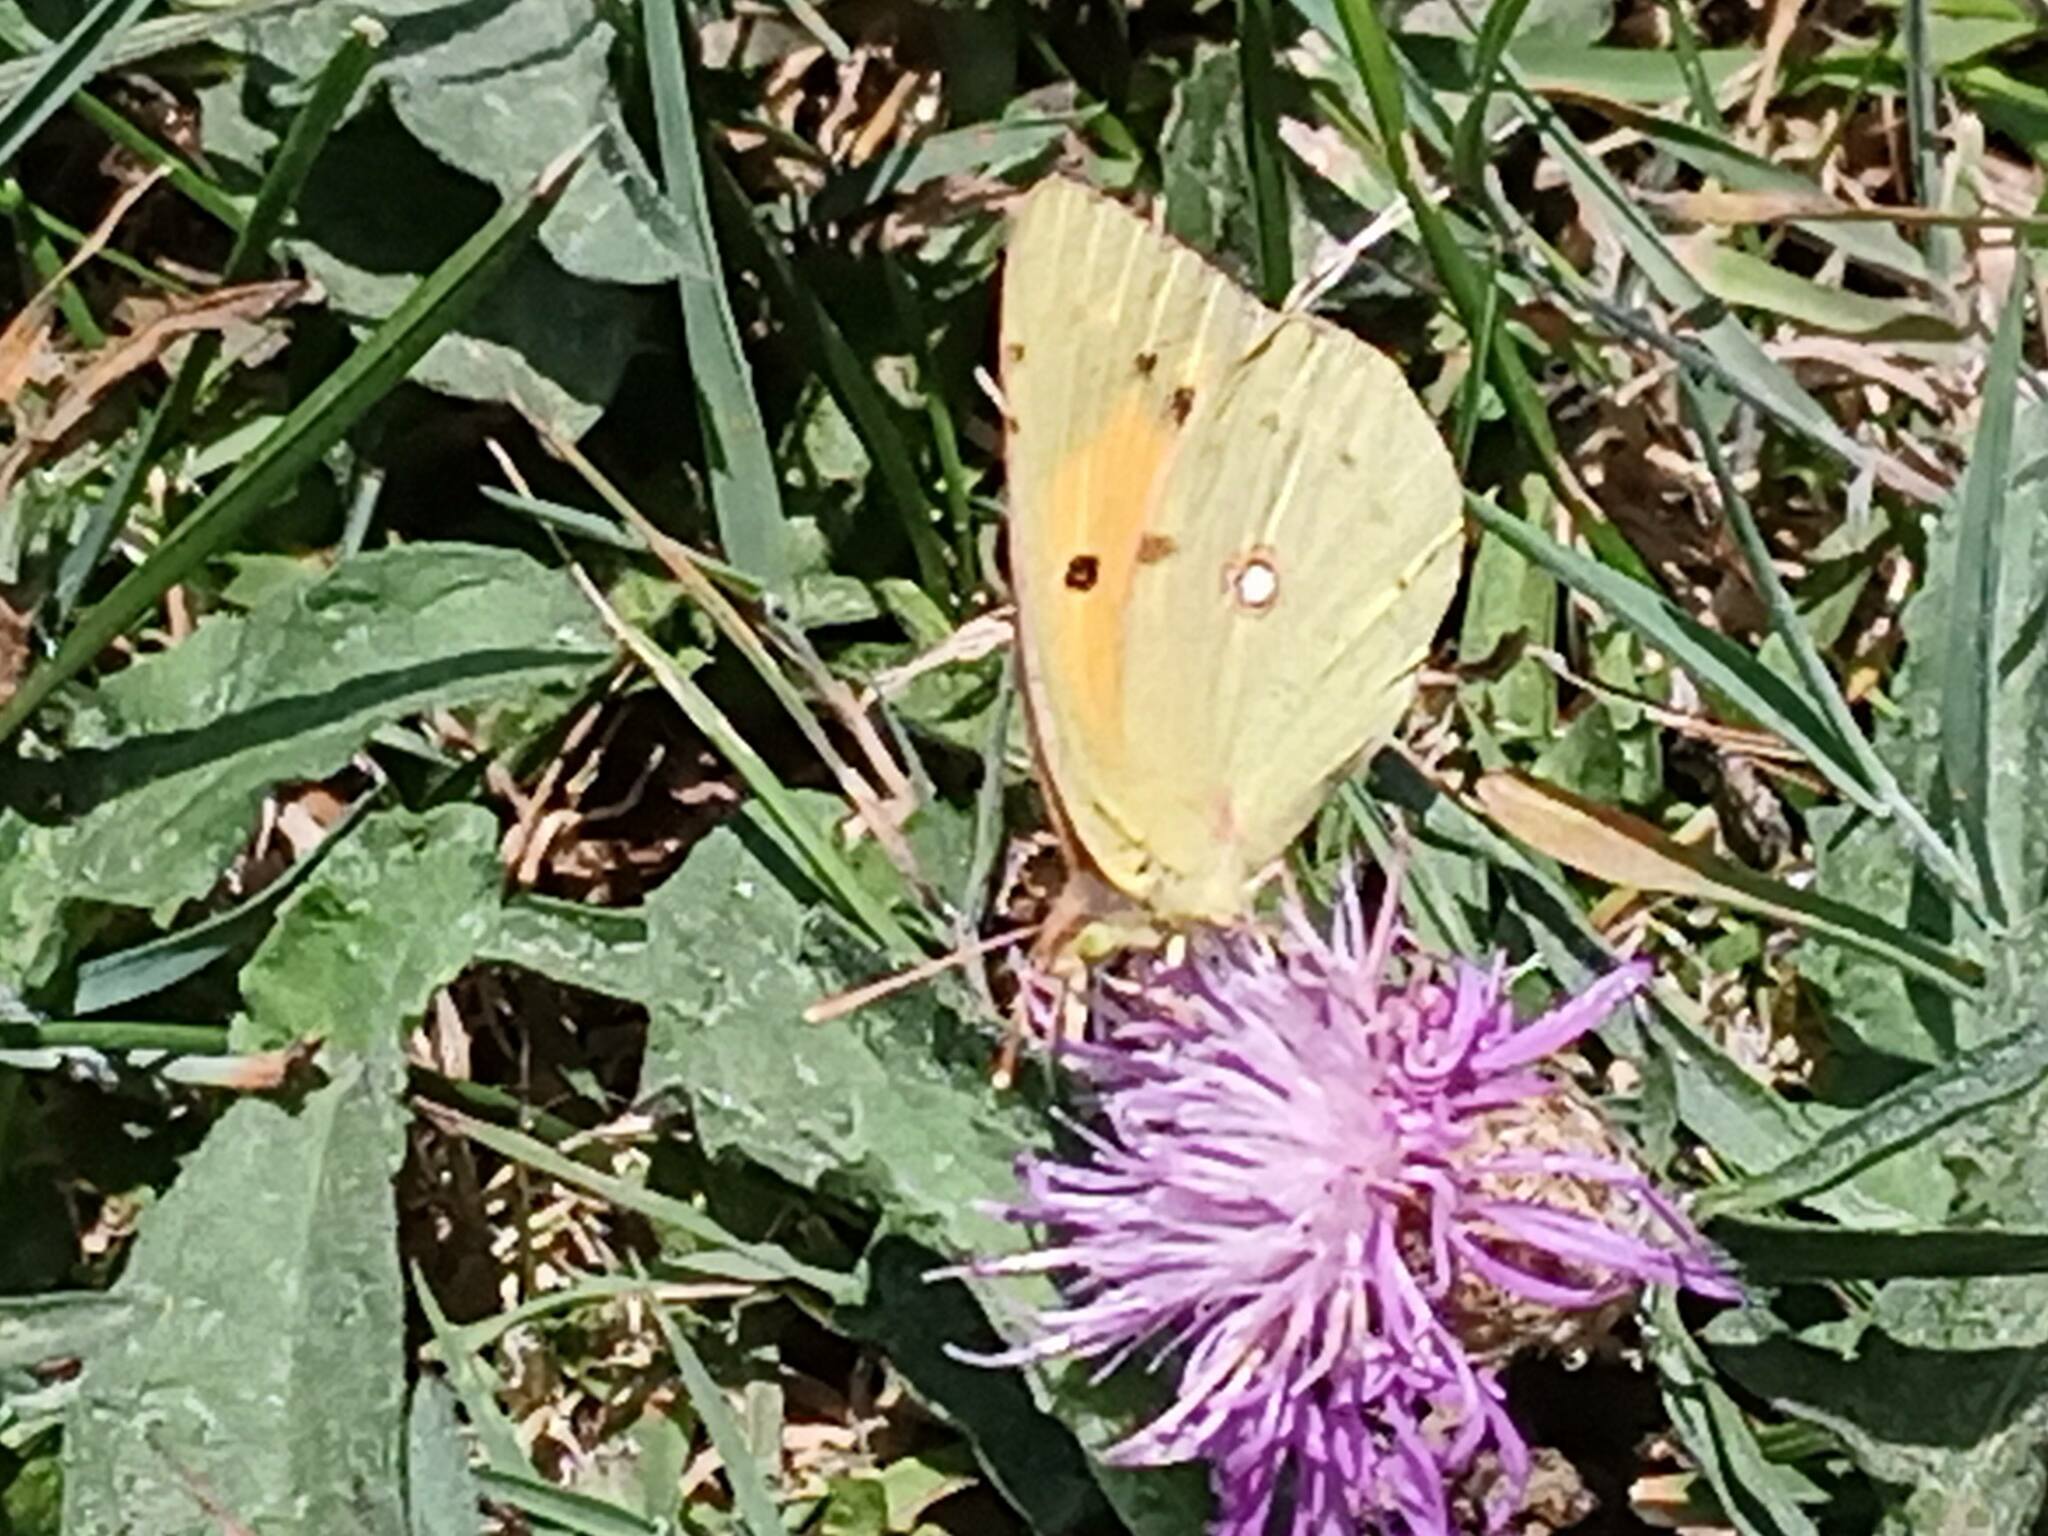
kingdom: Animalia
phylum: Arthropoda
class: Insecta
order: Lepidoptera
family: Pieridae
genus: Colias
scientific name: Colias croceus
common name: Clouded yellow
